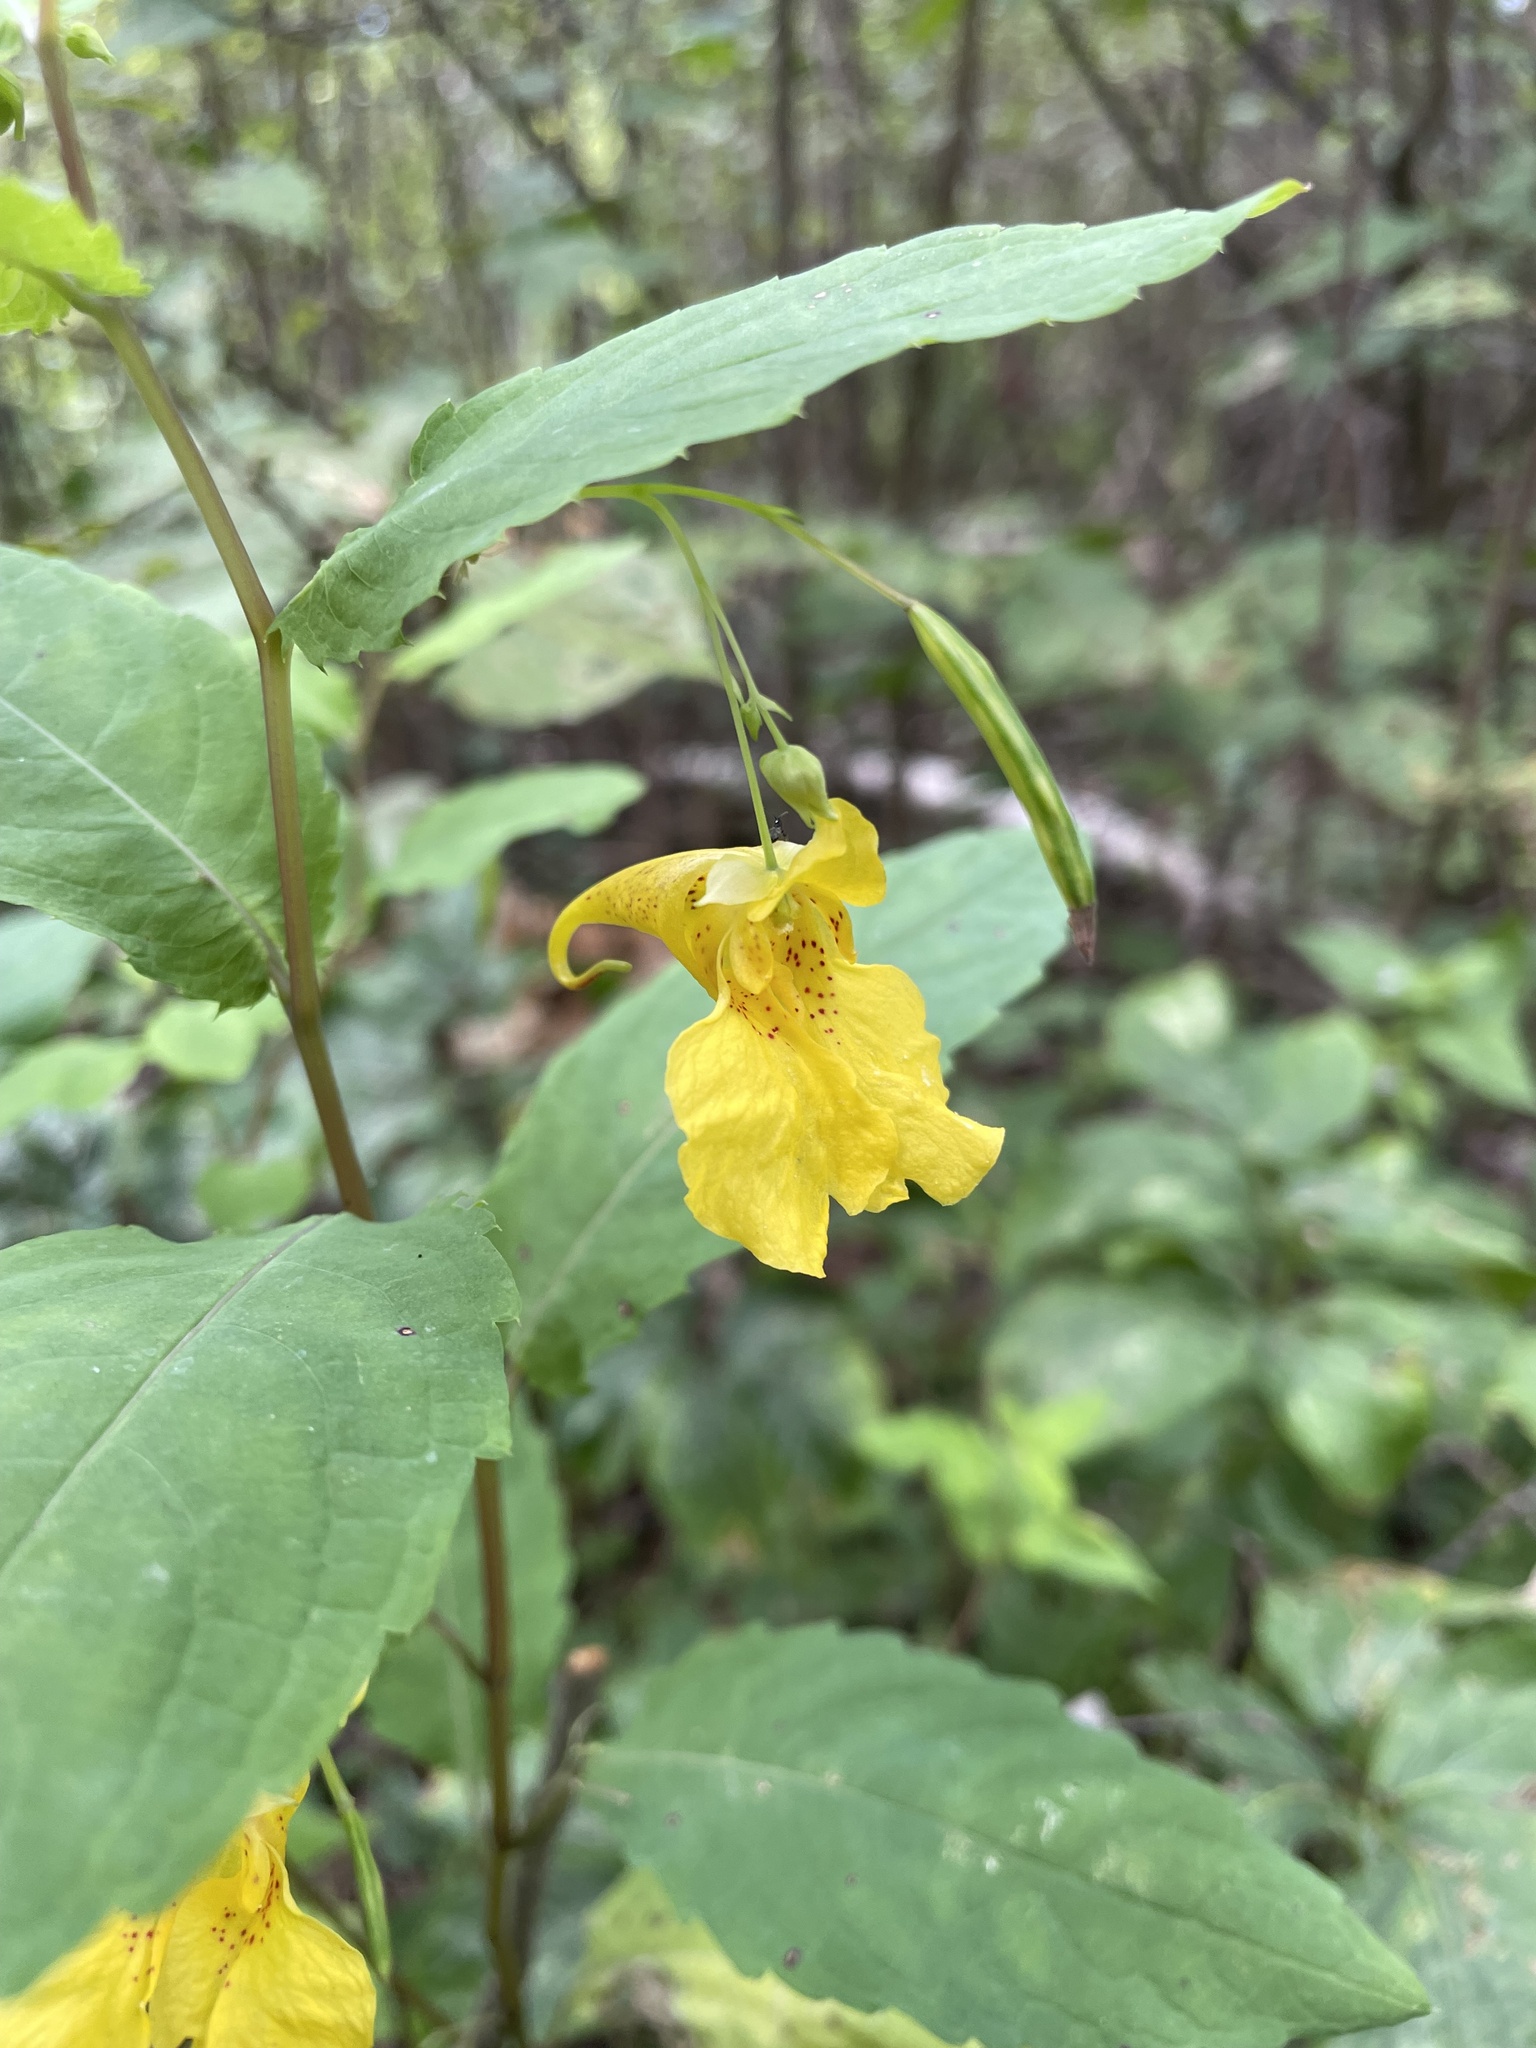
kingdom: Plantae
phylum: Tracheophyta
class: Magnoliopsida
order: Ericales
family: Balsaminaceae
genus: Impatiens
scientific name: Impatiens noli-tangere
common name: Touch-me-not balsam
